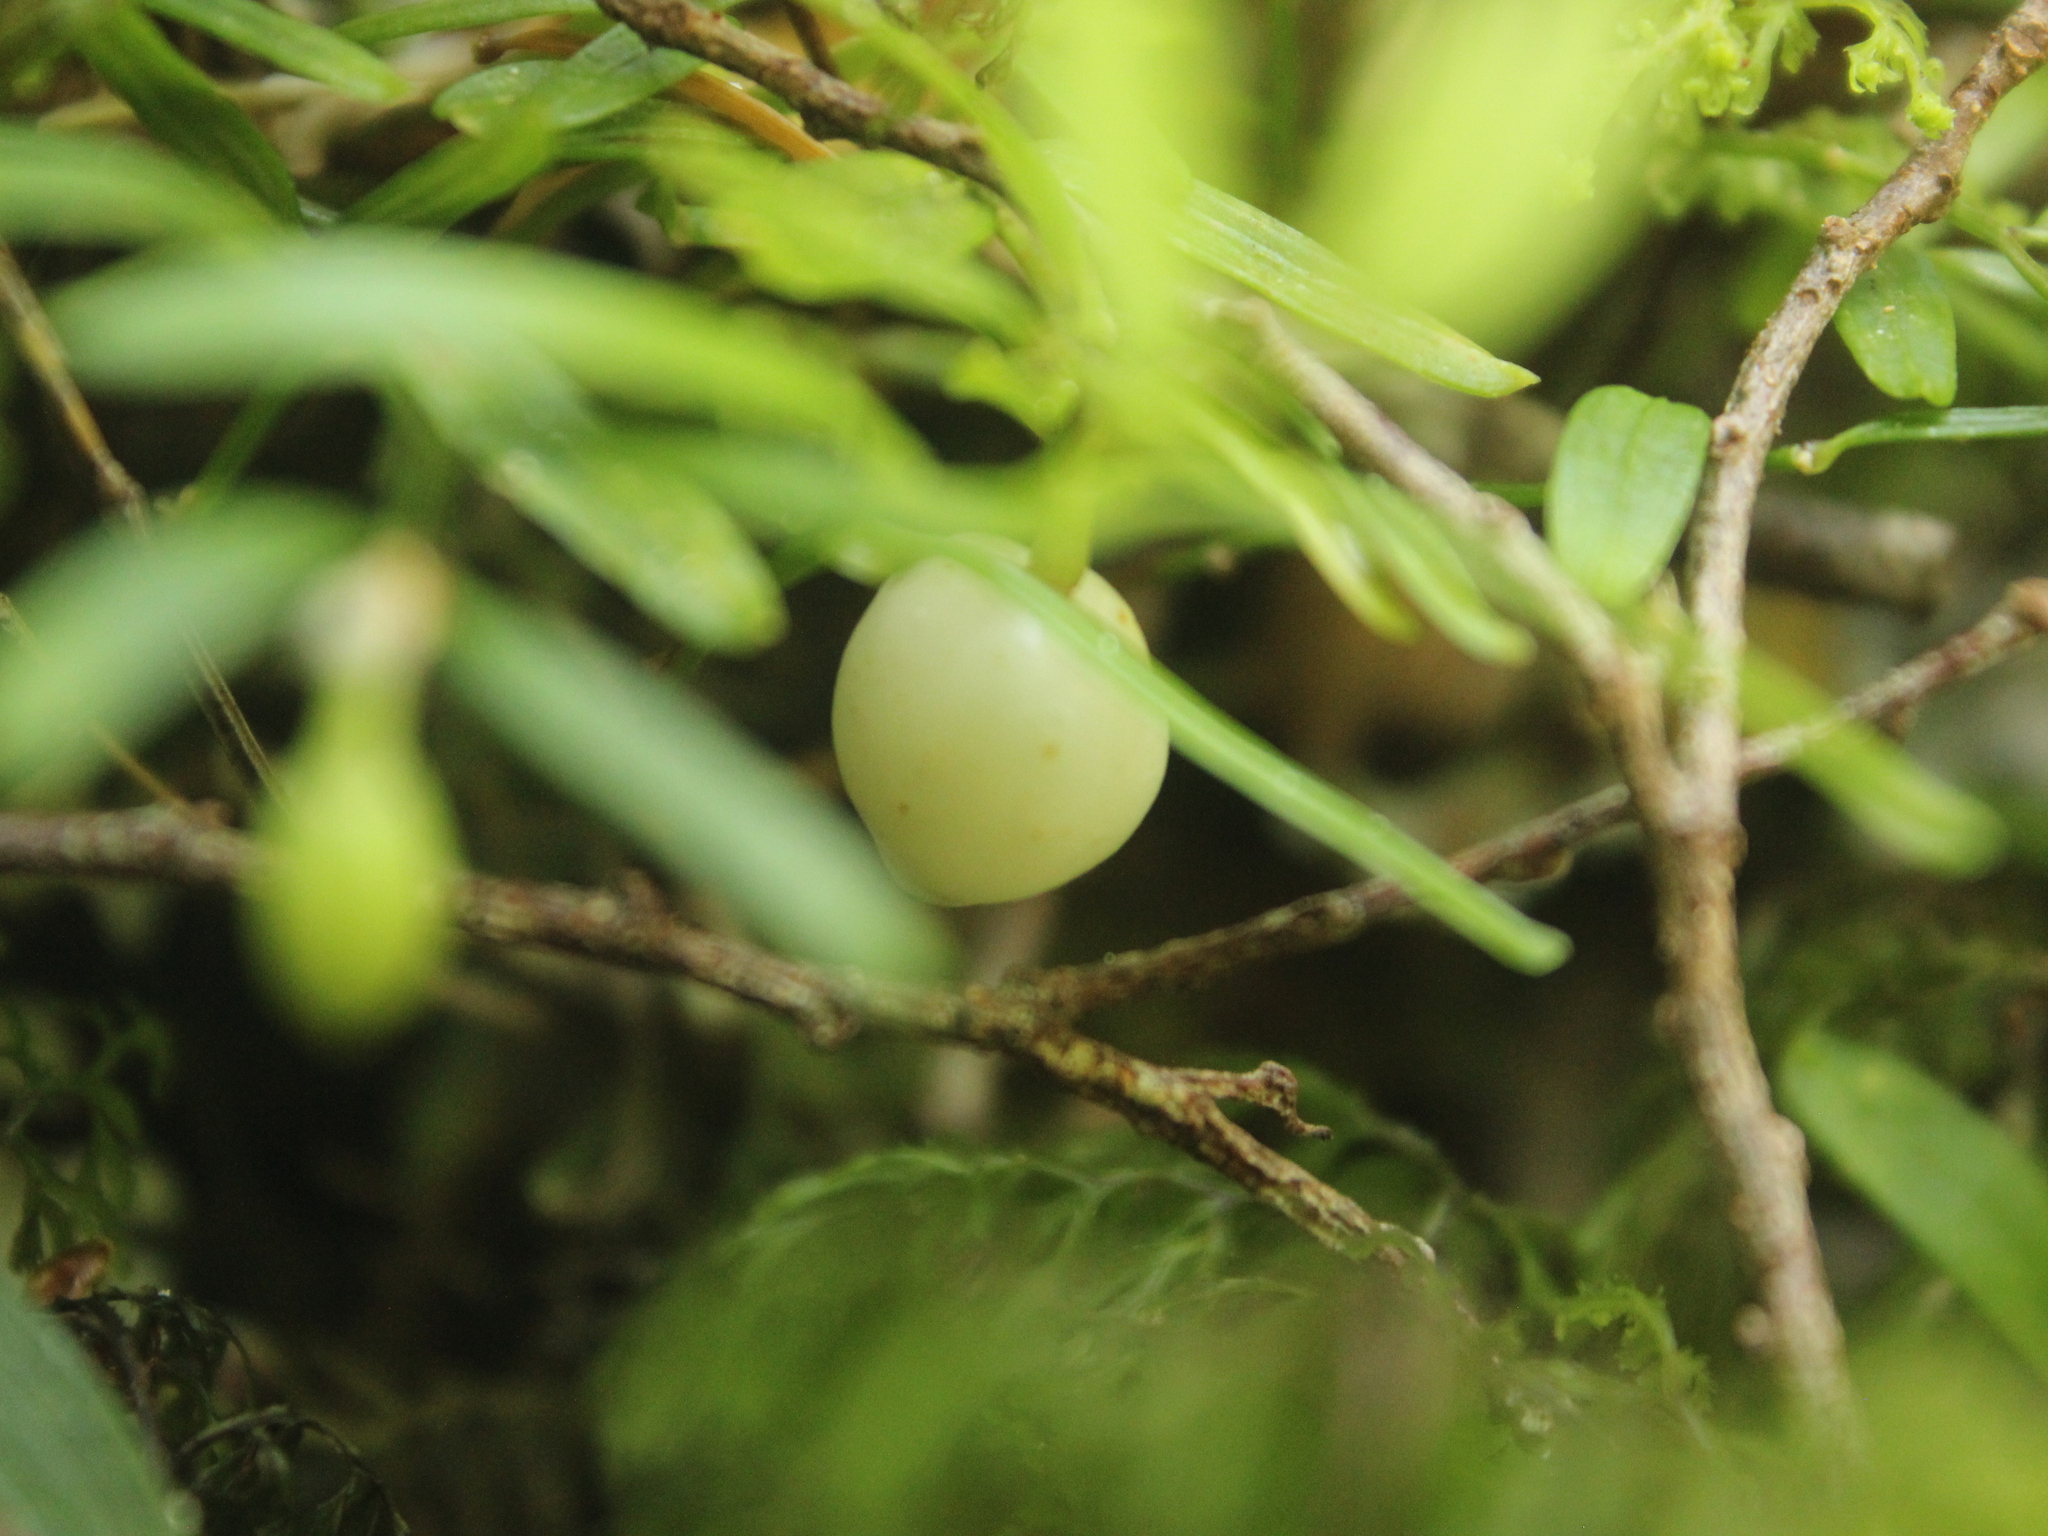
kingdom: Plantae
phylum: Tracheophyta
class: Liliopsida
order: Liliales
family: Alstroemeriaceae
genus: Luzuriaga
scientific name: Luzuriaga parviflora
